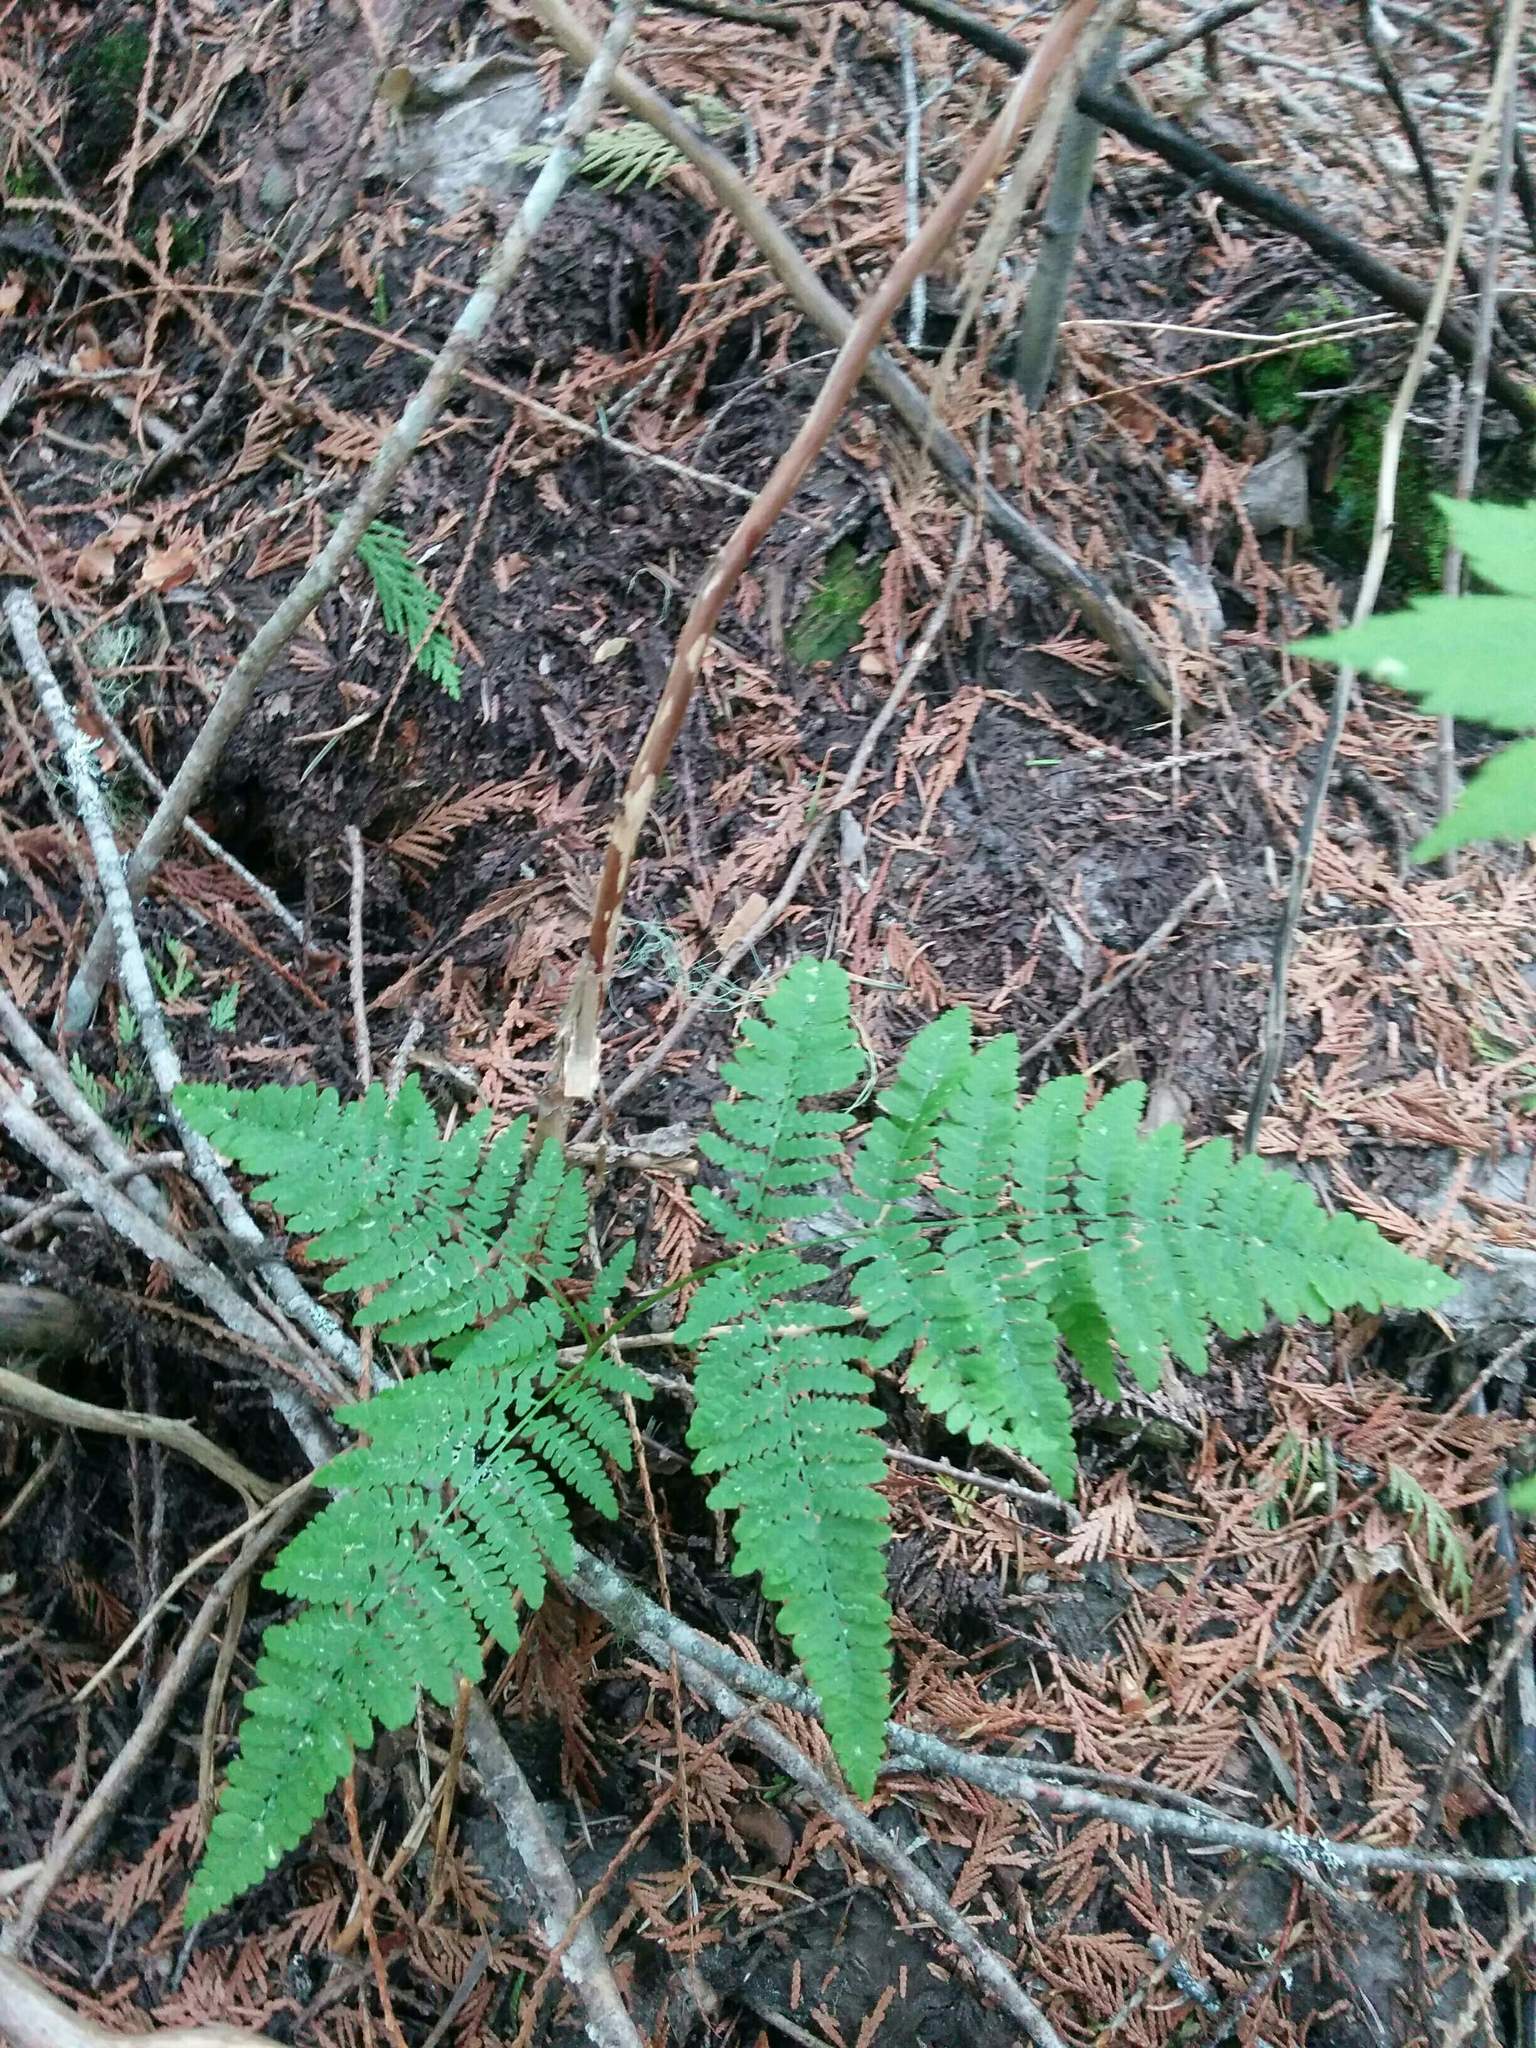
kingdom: Plantae
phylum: Tracheophyta
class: Polypodiopsida
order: Polypodiales
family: Dennstaedtiaceae
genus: Pteridium
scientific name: Pteridium aquilinum
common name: Bracken
